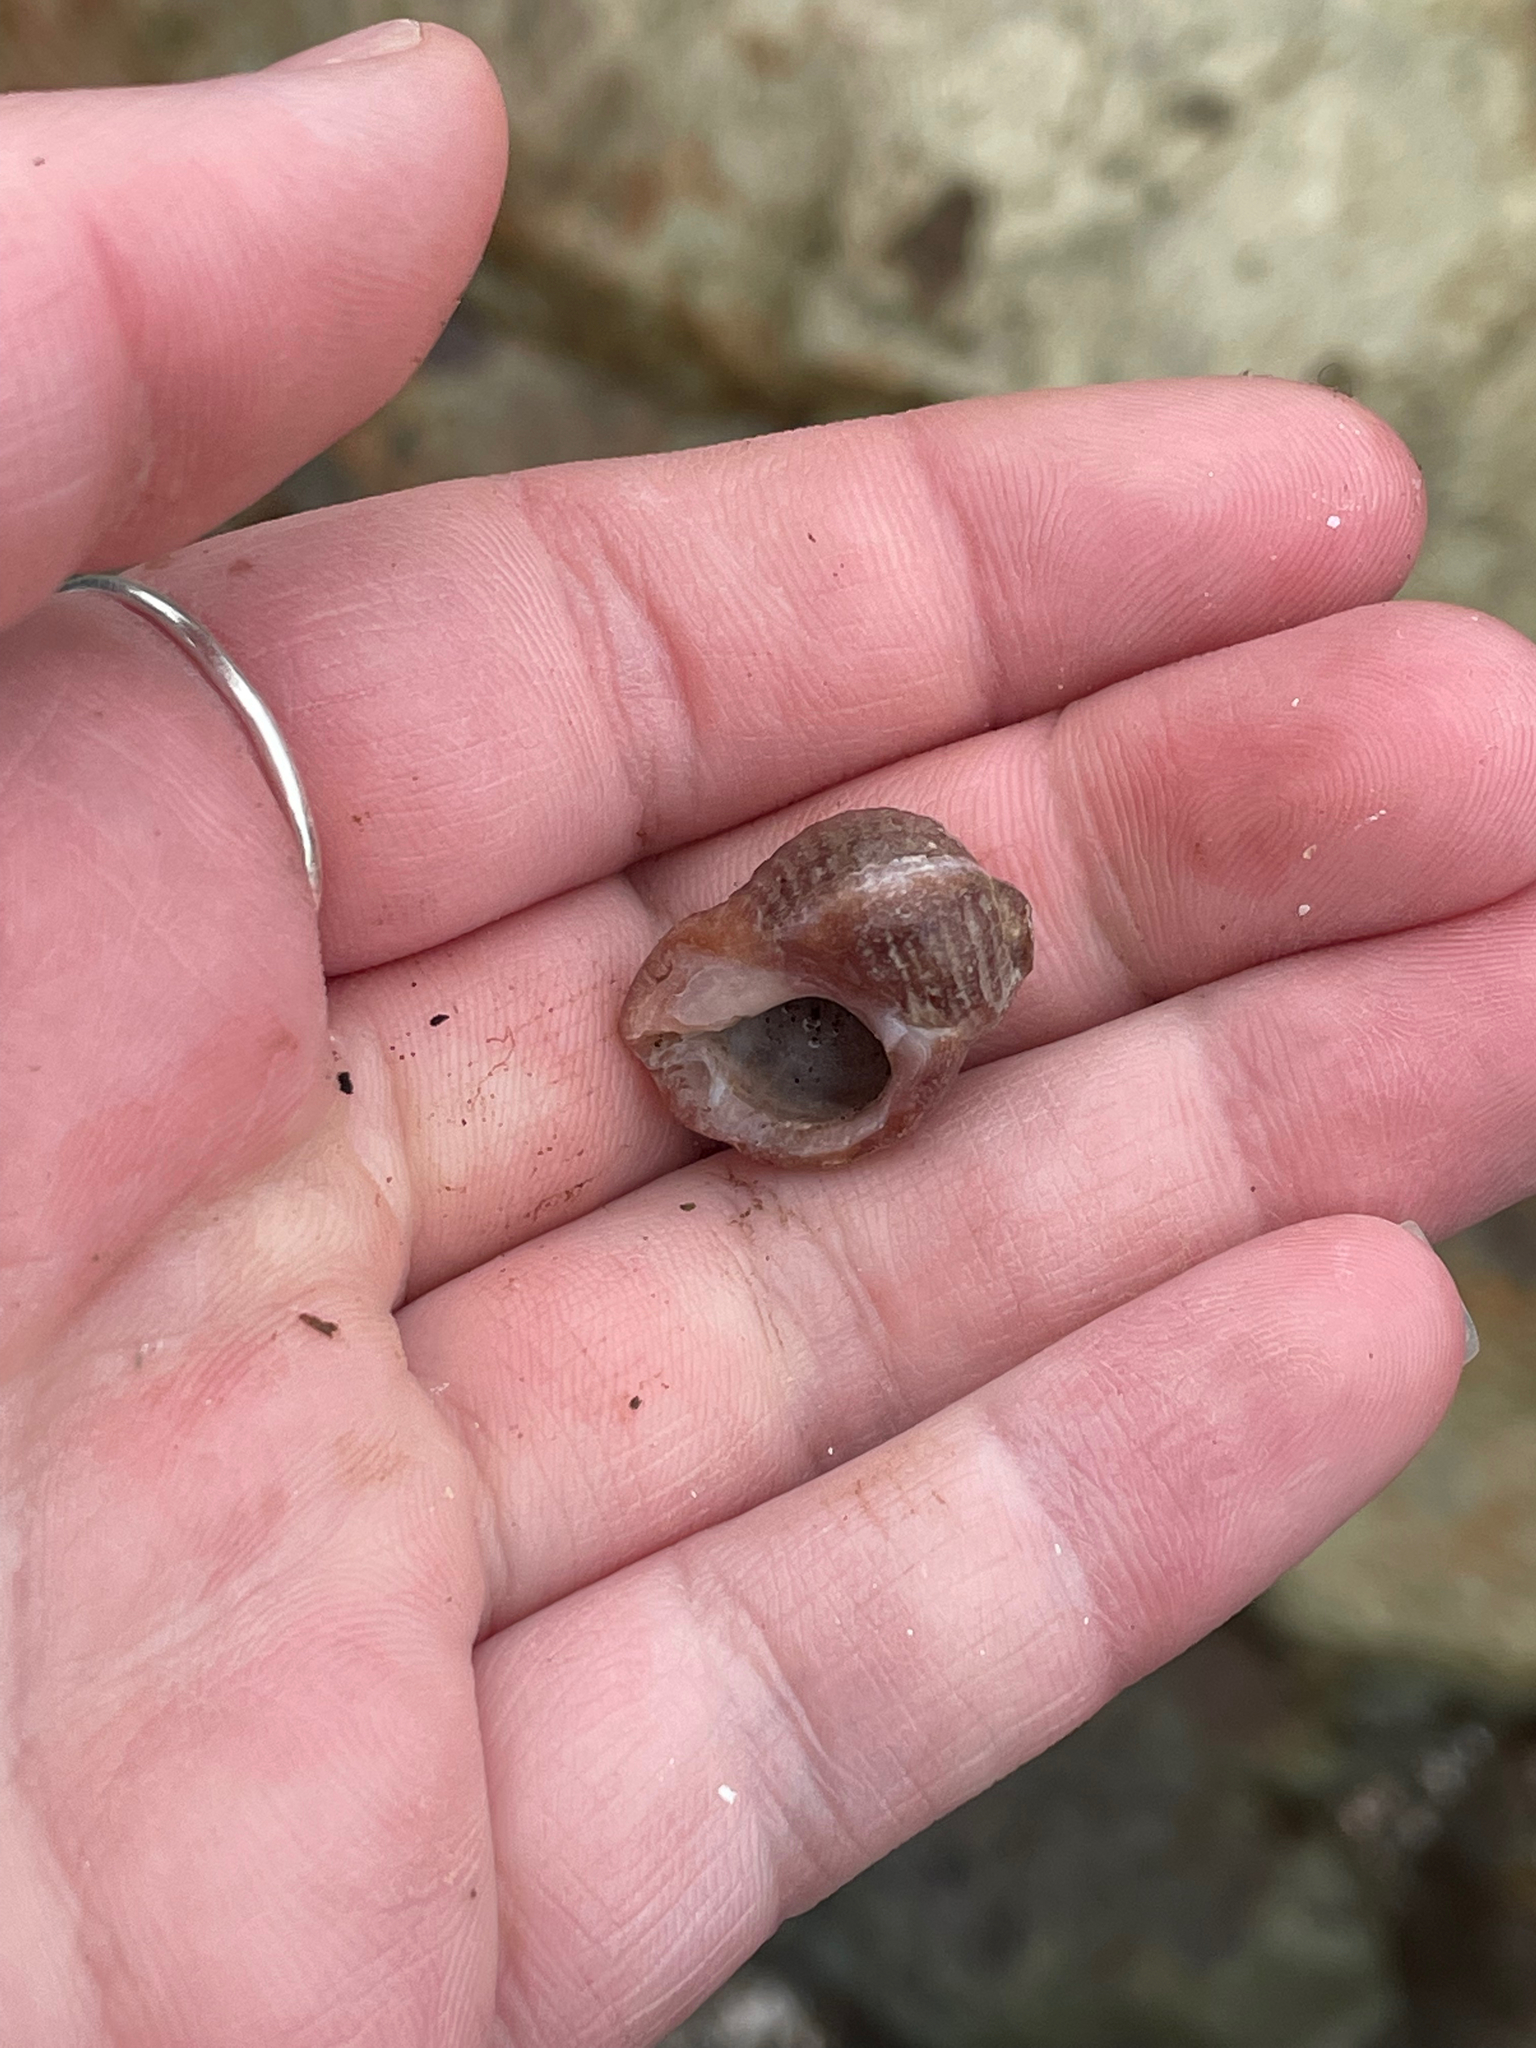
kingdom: Animalia
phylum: Mollusca
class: Gastropoda
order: Neogastropoda
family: Muricidae
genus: Nucella
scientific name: Nucella lapillus
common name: Dog whelk
